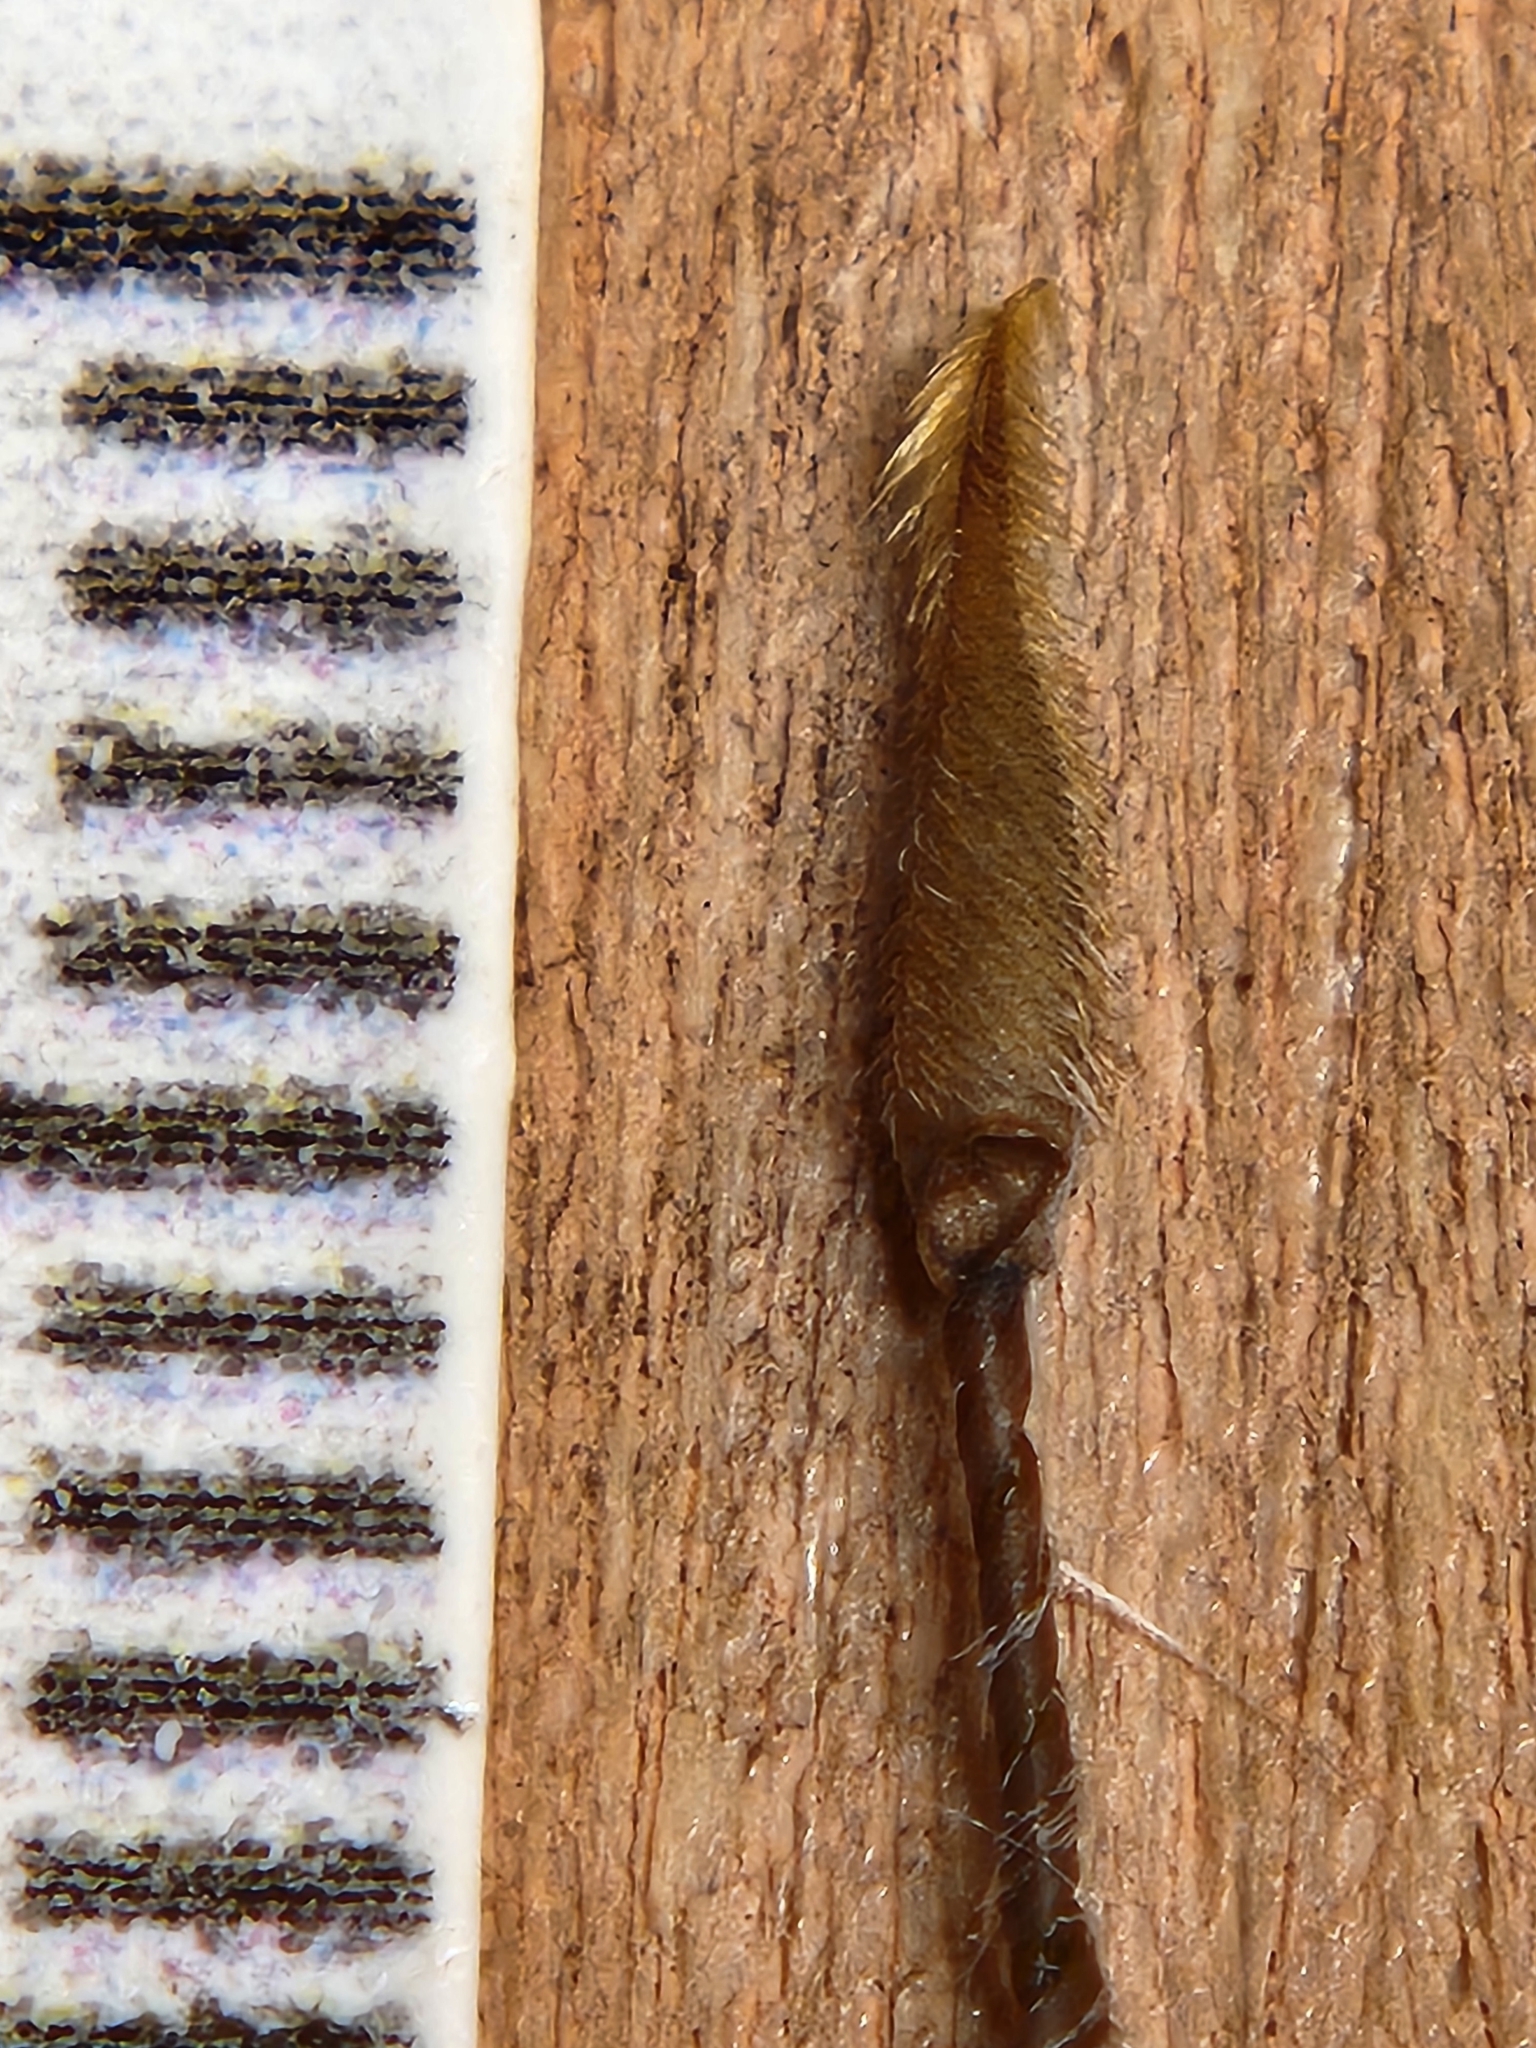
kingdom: Plantae
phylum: Tracheophyta
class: Magnoliopsida
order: Geraniales
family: Geraniaceae
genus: Erodium
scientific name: Erodium cicutarium
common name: Common stork's-bill
